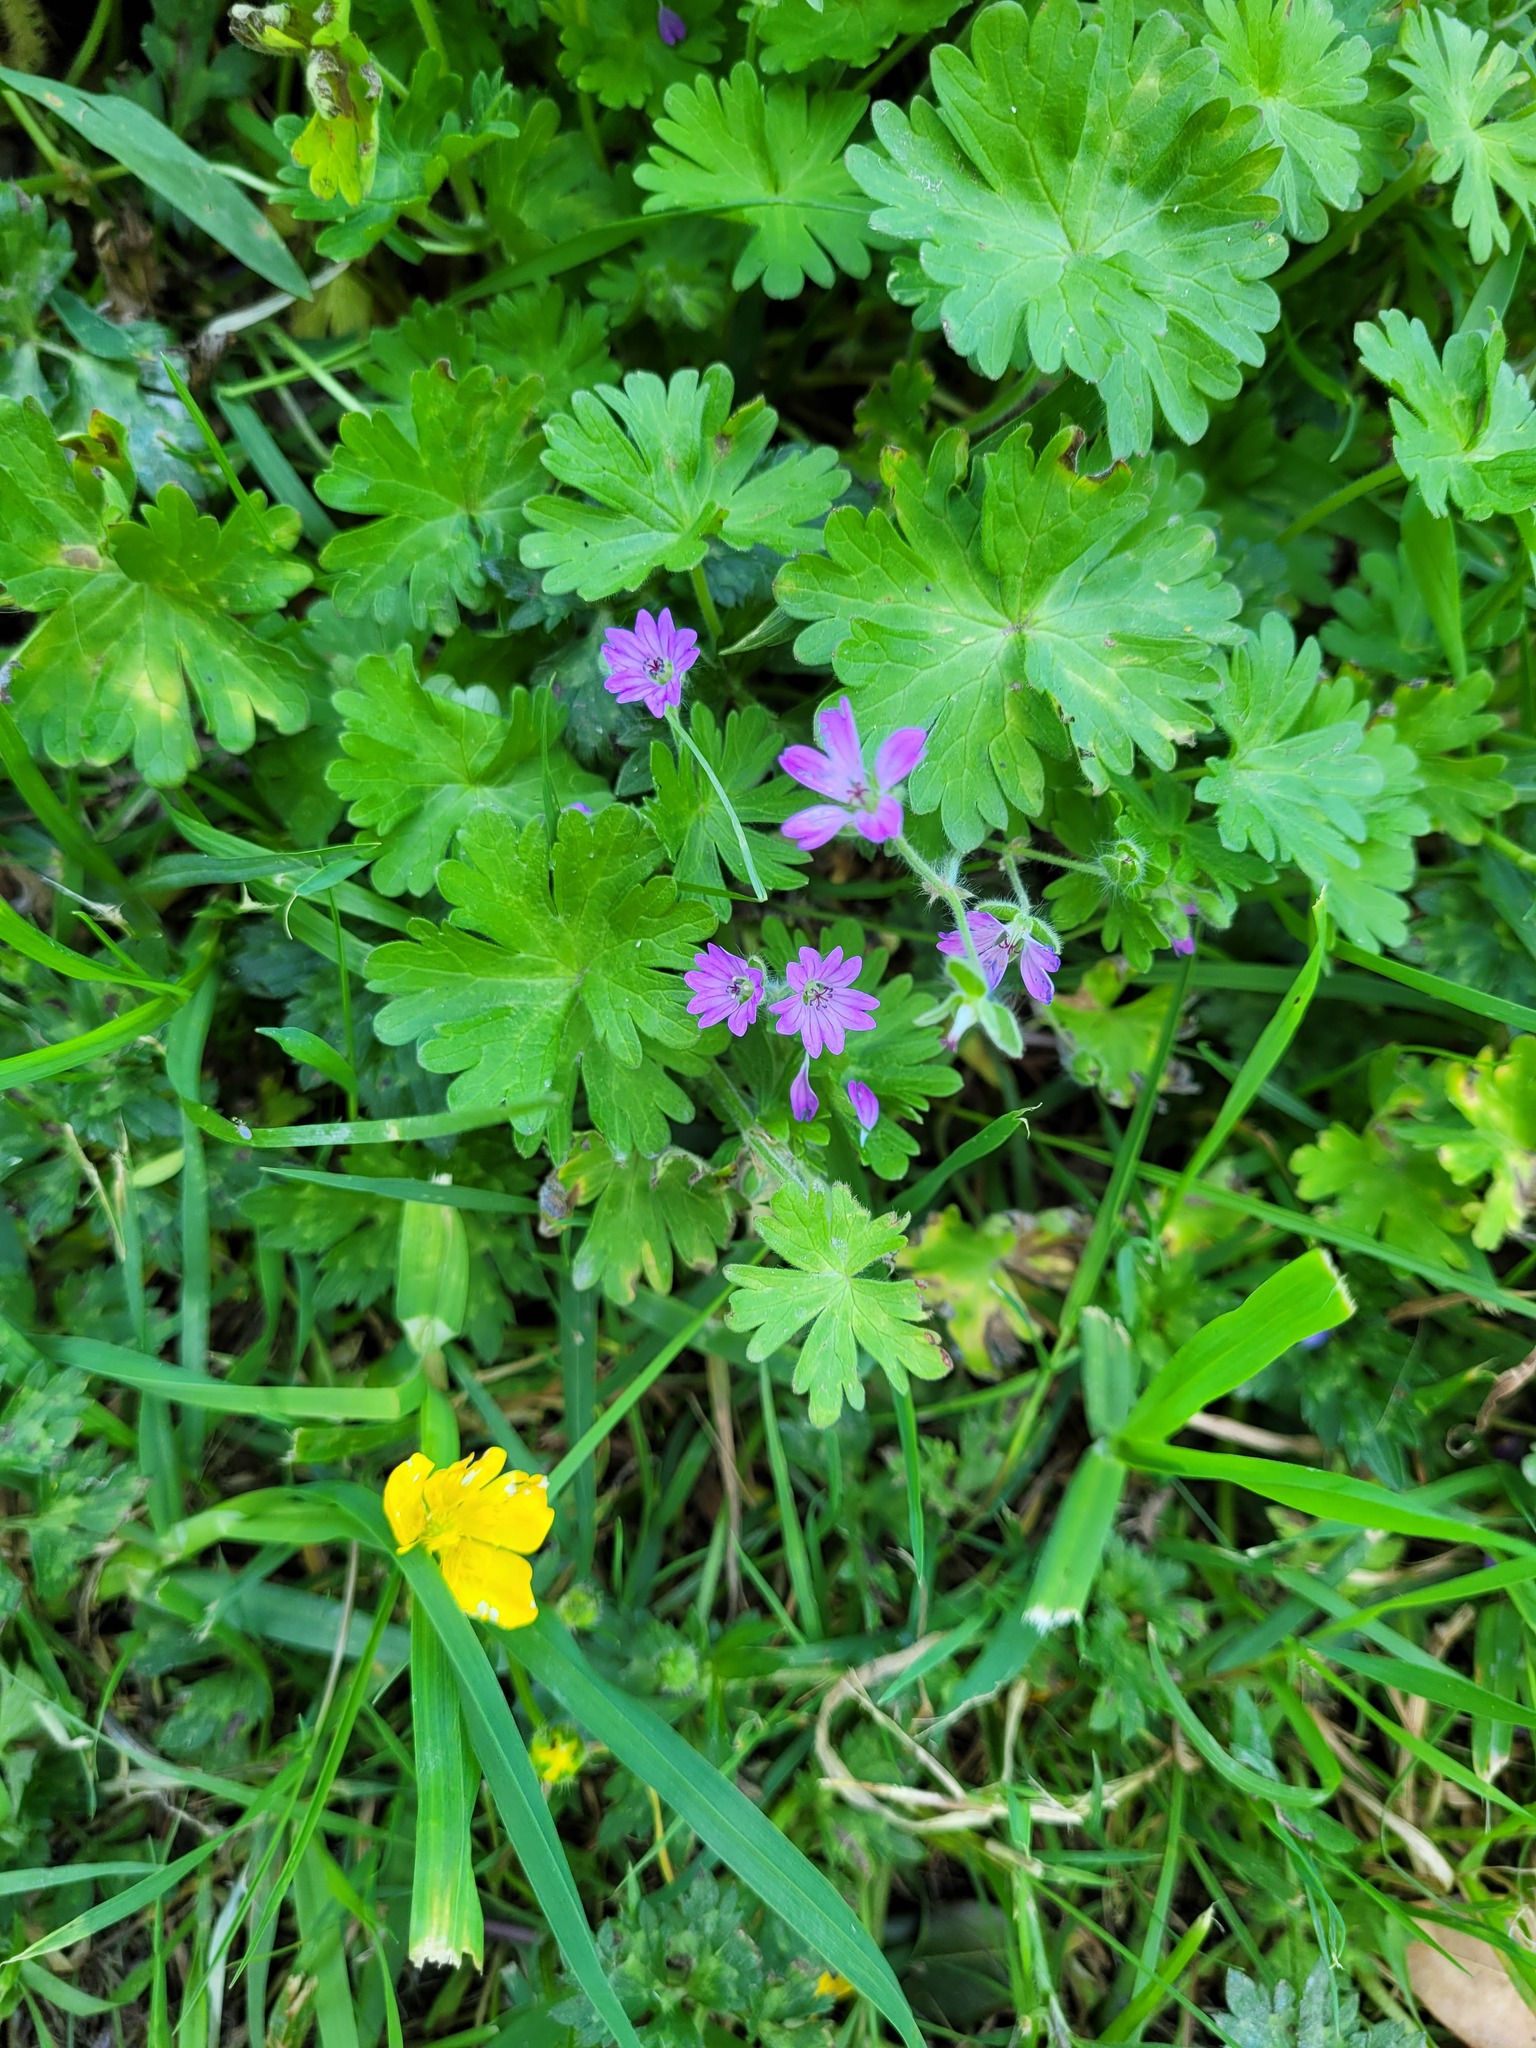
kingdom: Plantae
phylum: Tracheophyta
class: Magnoliopsida
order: Geraniales
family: Geraniaceae
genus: Geranium
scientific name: Geranium molle
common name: Dove's-foot crane's-bill
